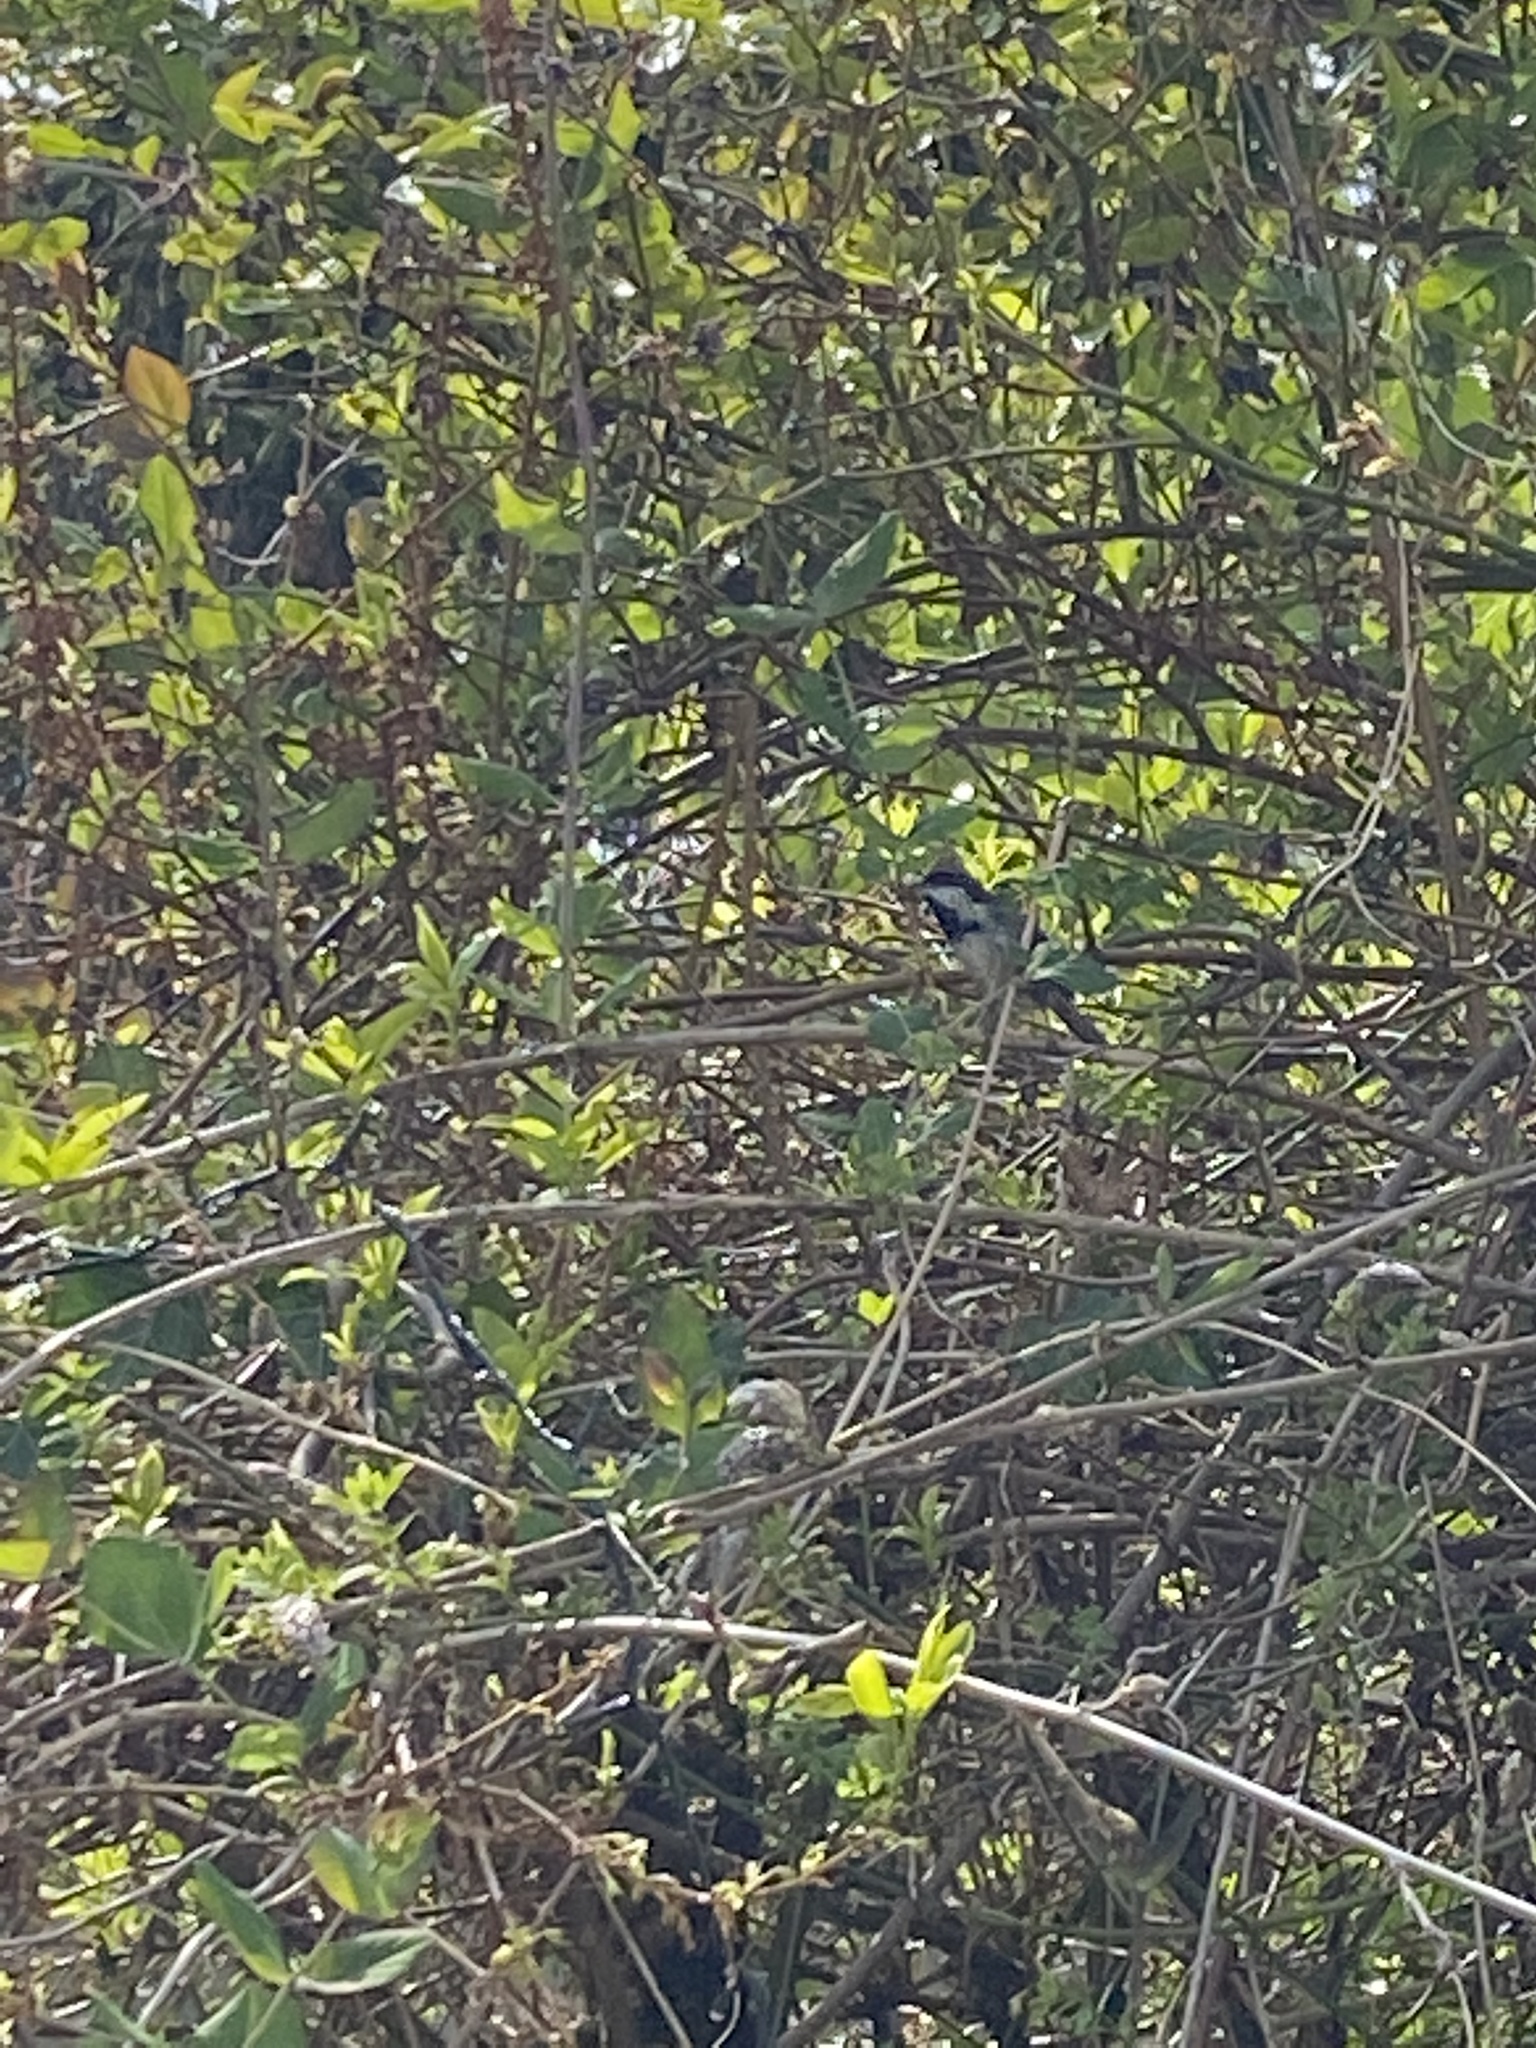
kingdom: Animalia
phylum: Chordata
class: Aves
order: Passeriformes
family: Paridae
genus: Poecile
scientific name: Poecile atricapillus
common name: Black-capped chickadee
